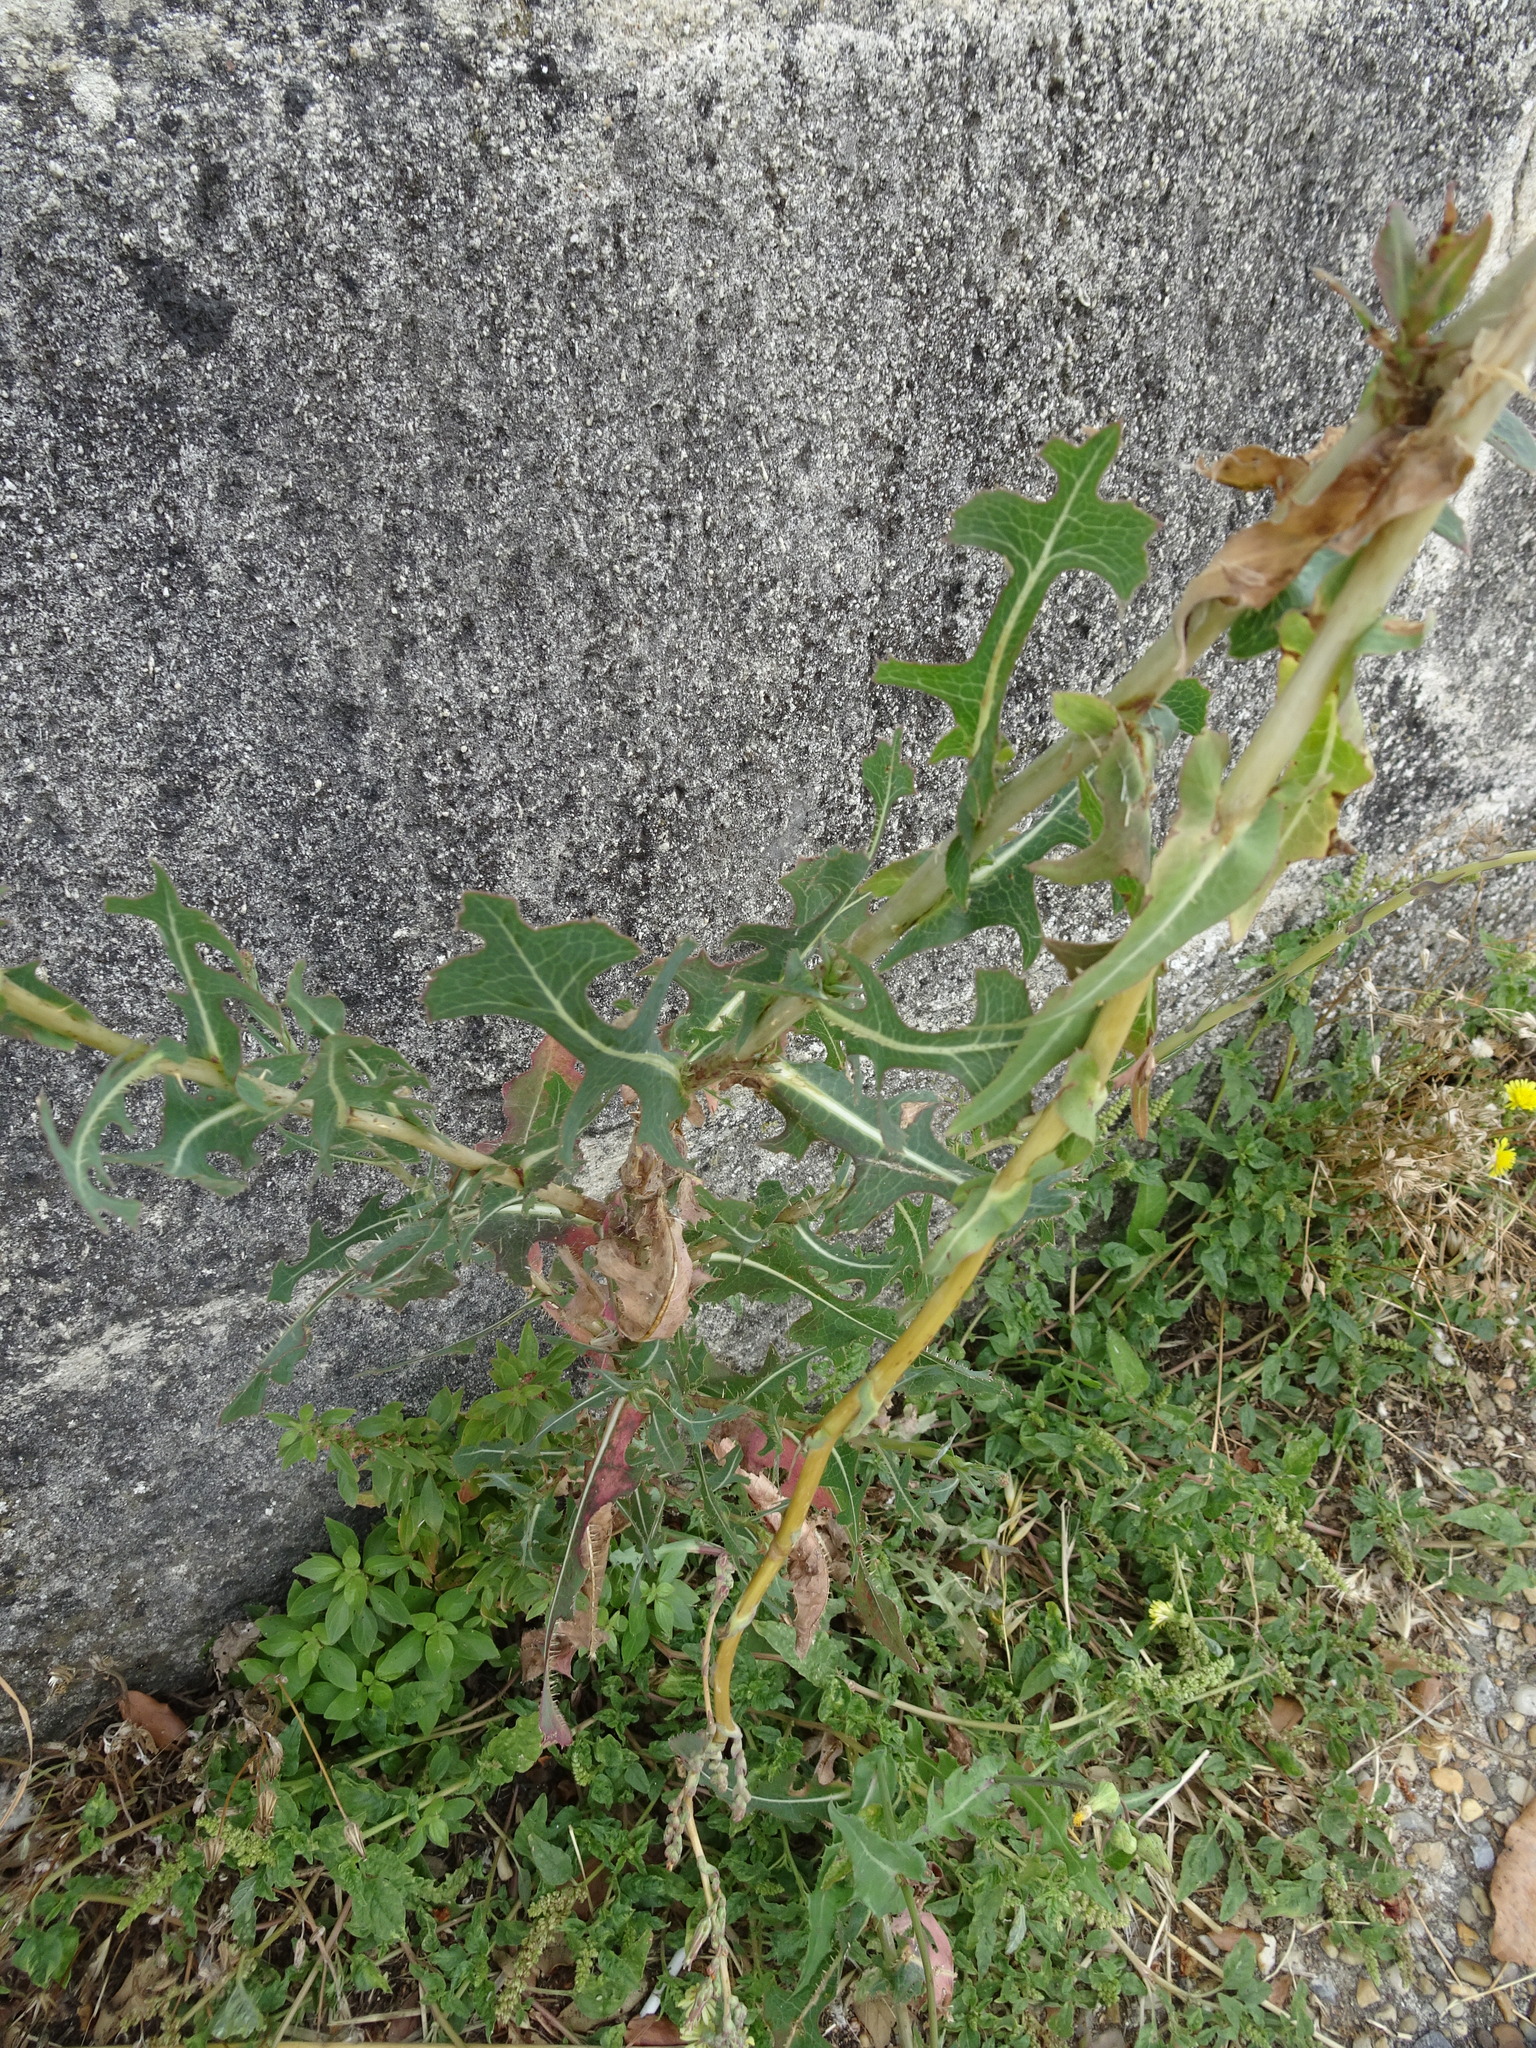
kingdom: Plantae
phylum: Tracheophyta
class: Magnoliopsida
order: Asterales
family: Asteraceae
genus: Lactuca
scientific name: Lactuca serriola
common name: Prickly lettuce
